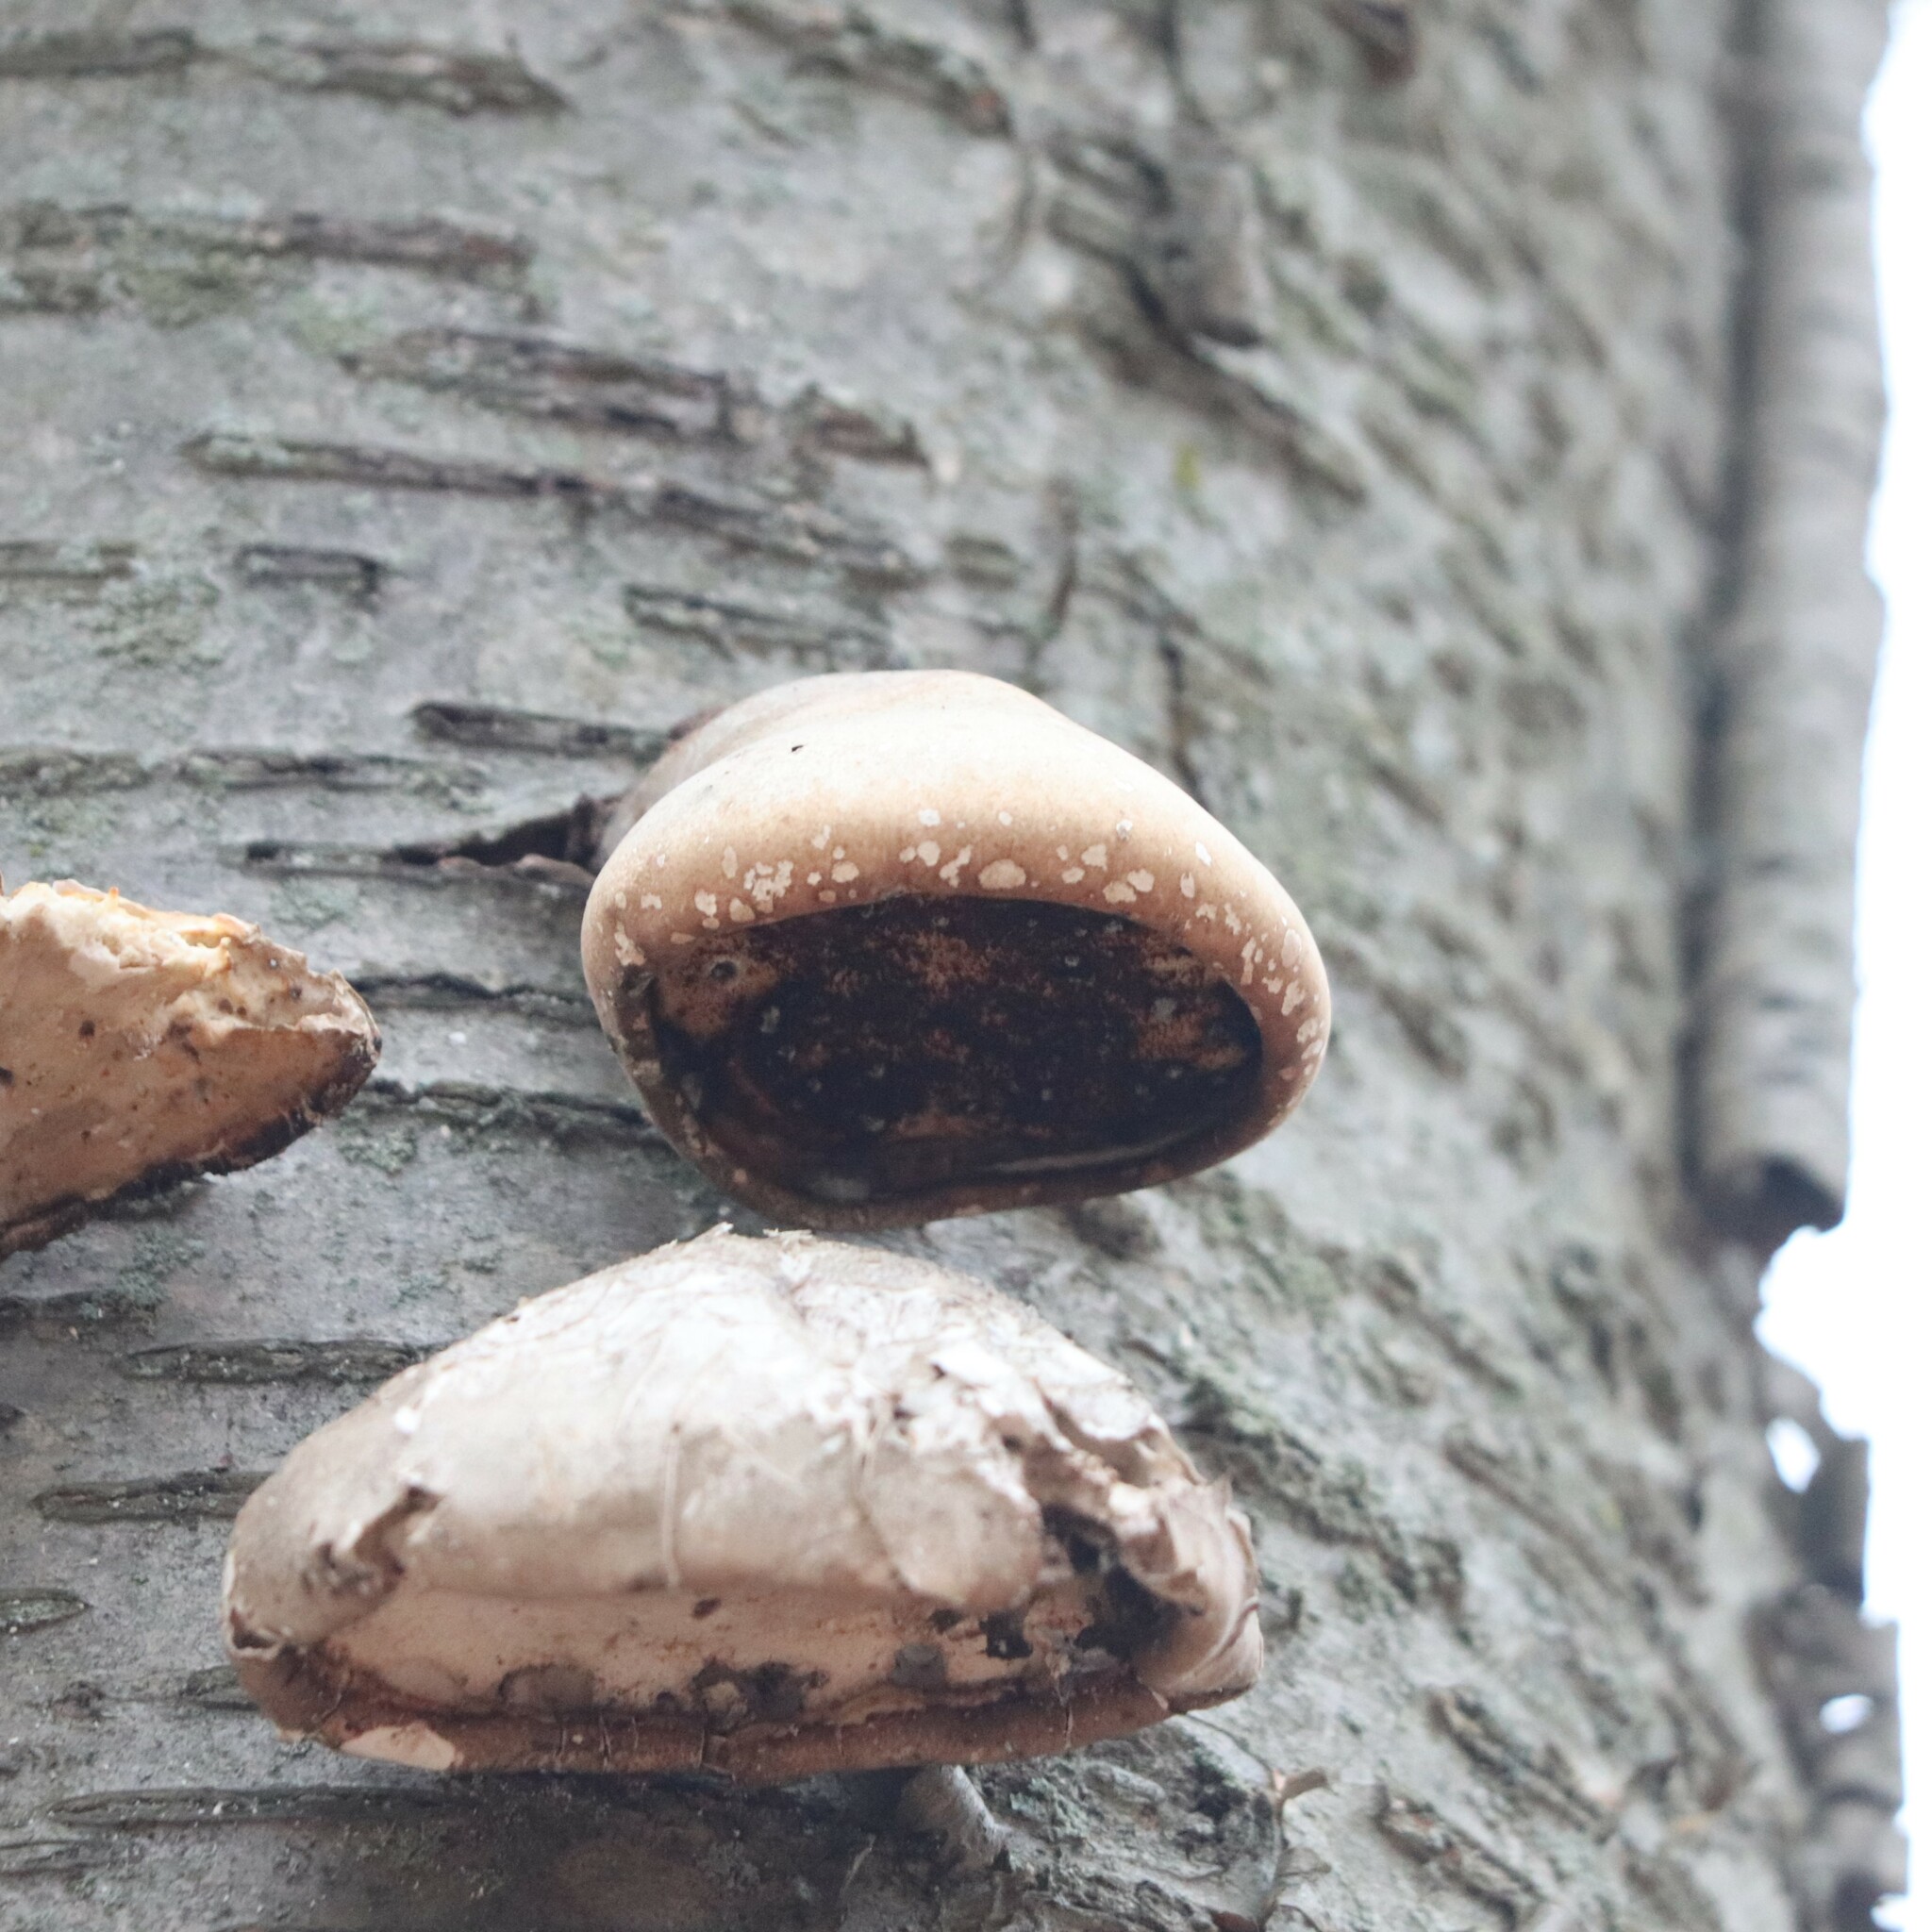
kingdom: Fungi
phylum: Basidiomycota
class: Agaricomycetes
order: Polyporales
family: Fomitopsidaceae
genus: Fomitopsis
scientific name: Fomitopsis betulina
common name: Birch polypore
